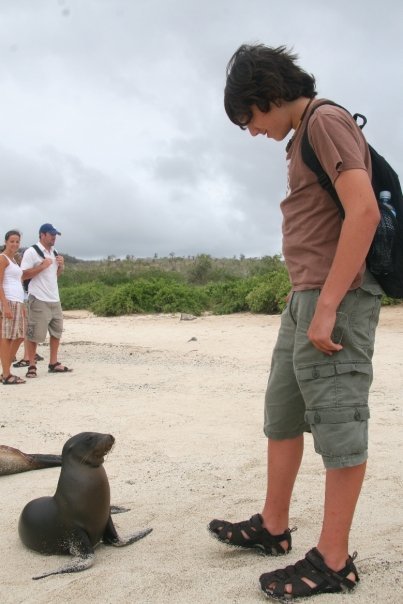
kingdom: Animalia
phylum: Chordata
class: Mammalia
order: Carnivora
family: Otariidae
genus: Zalophus
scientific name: Zalophus wollebaeki
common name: Galapagos sea lion
